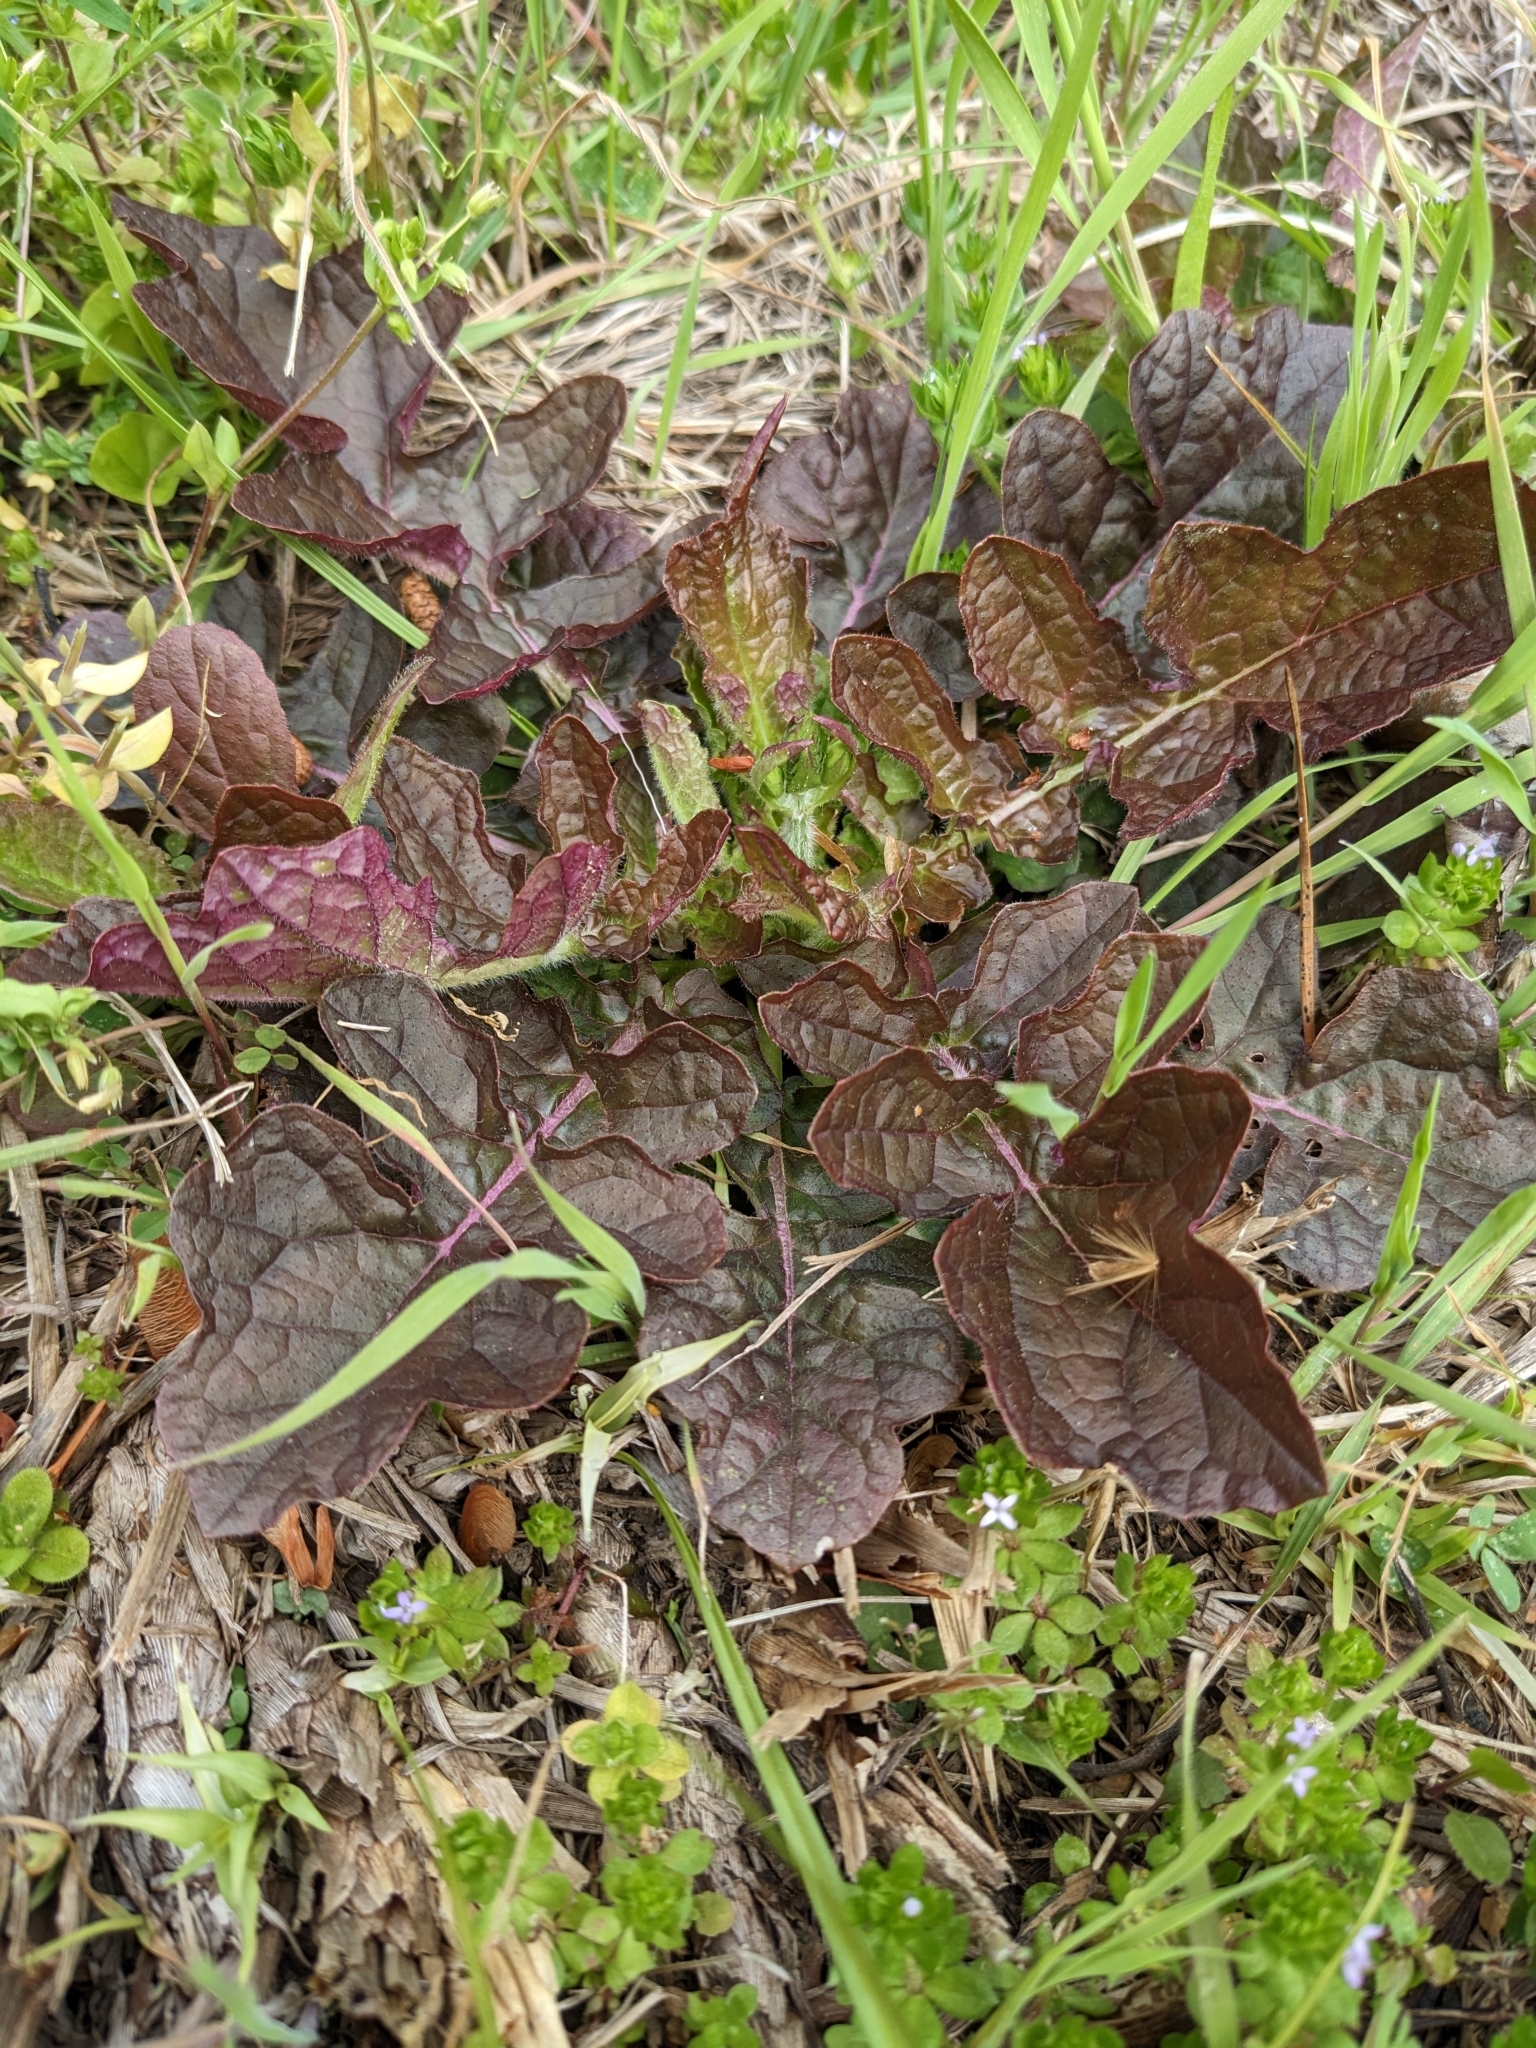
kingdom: Plantae
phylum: Tracheophyta
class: Magnoliopsida
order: Lamiales
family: Lamiaceae
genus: Salvia
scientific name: Salvia lyrata
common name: Cancerweed
